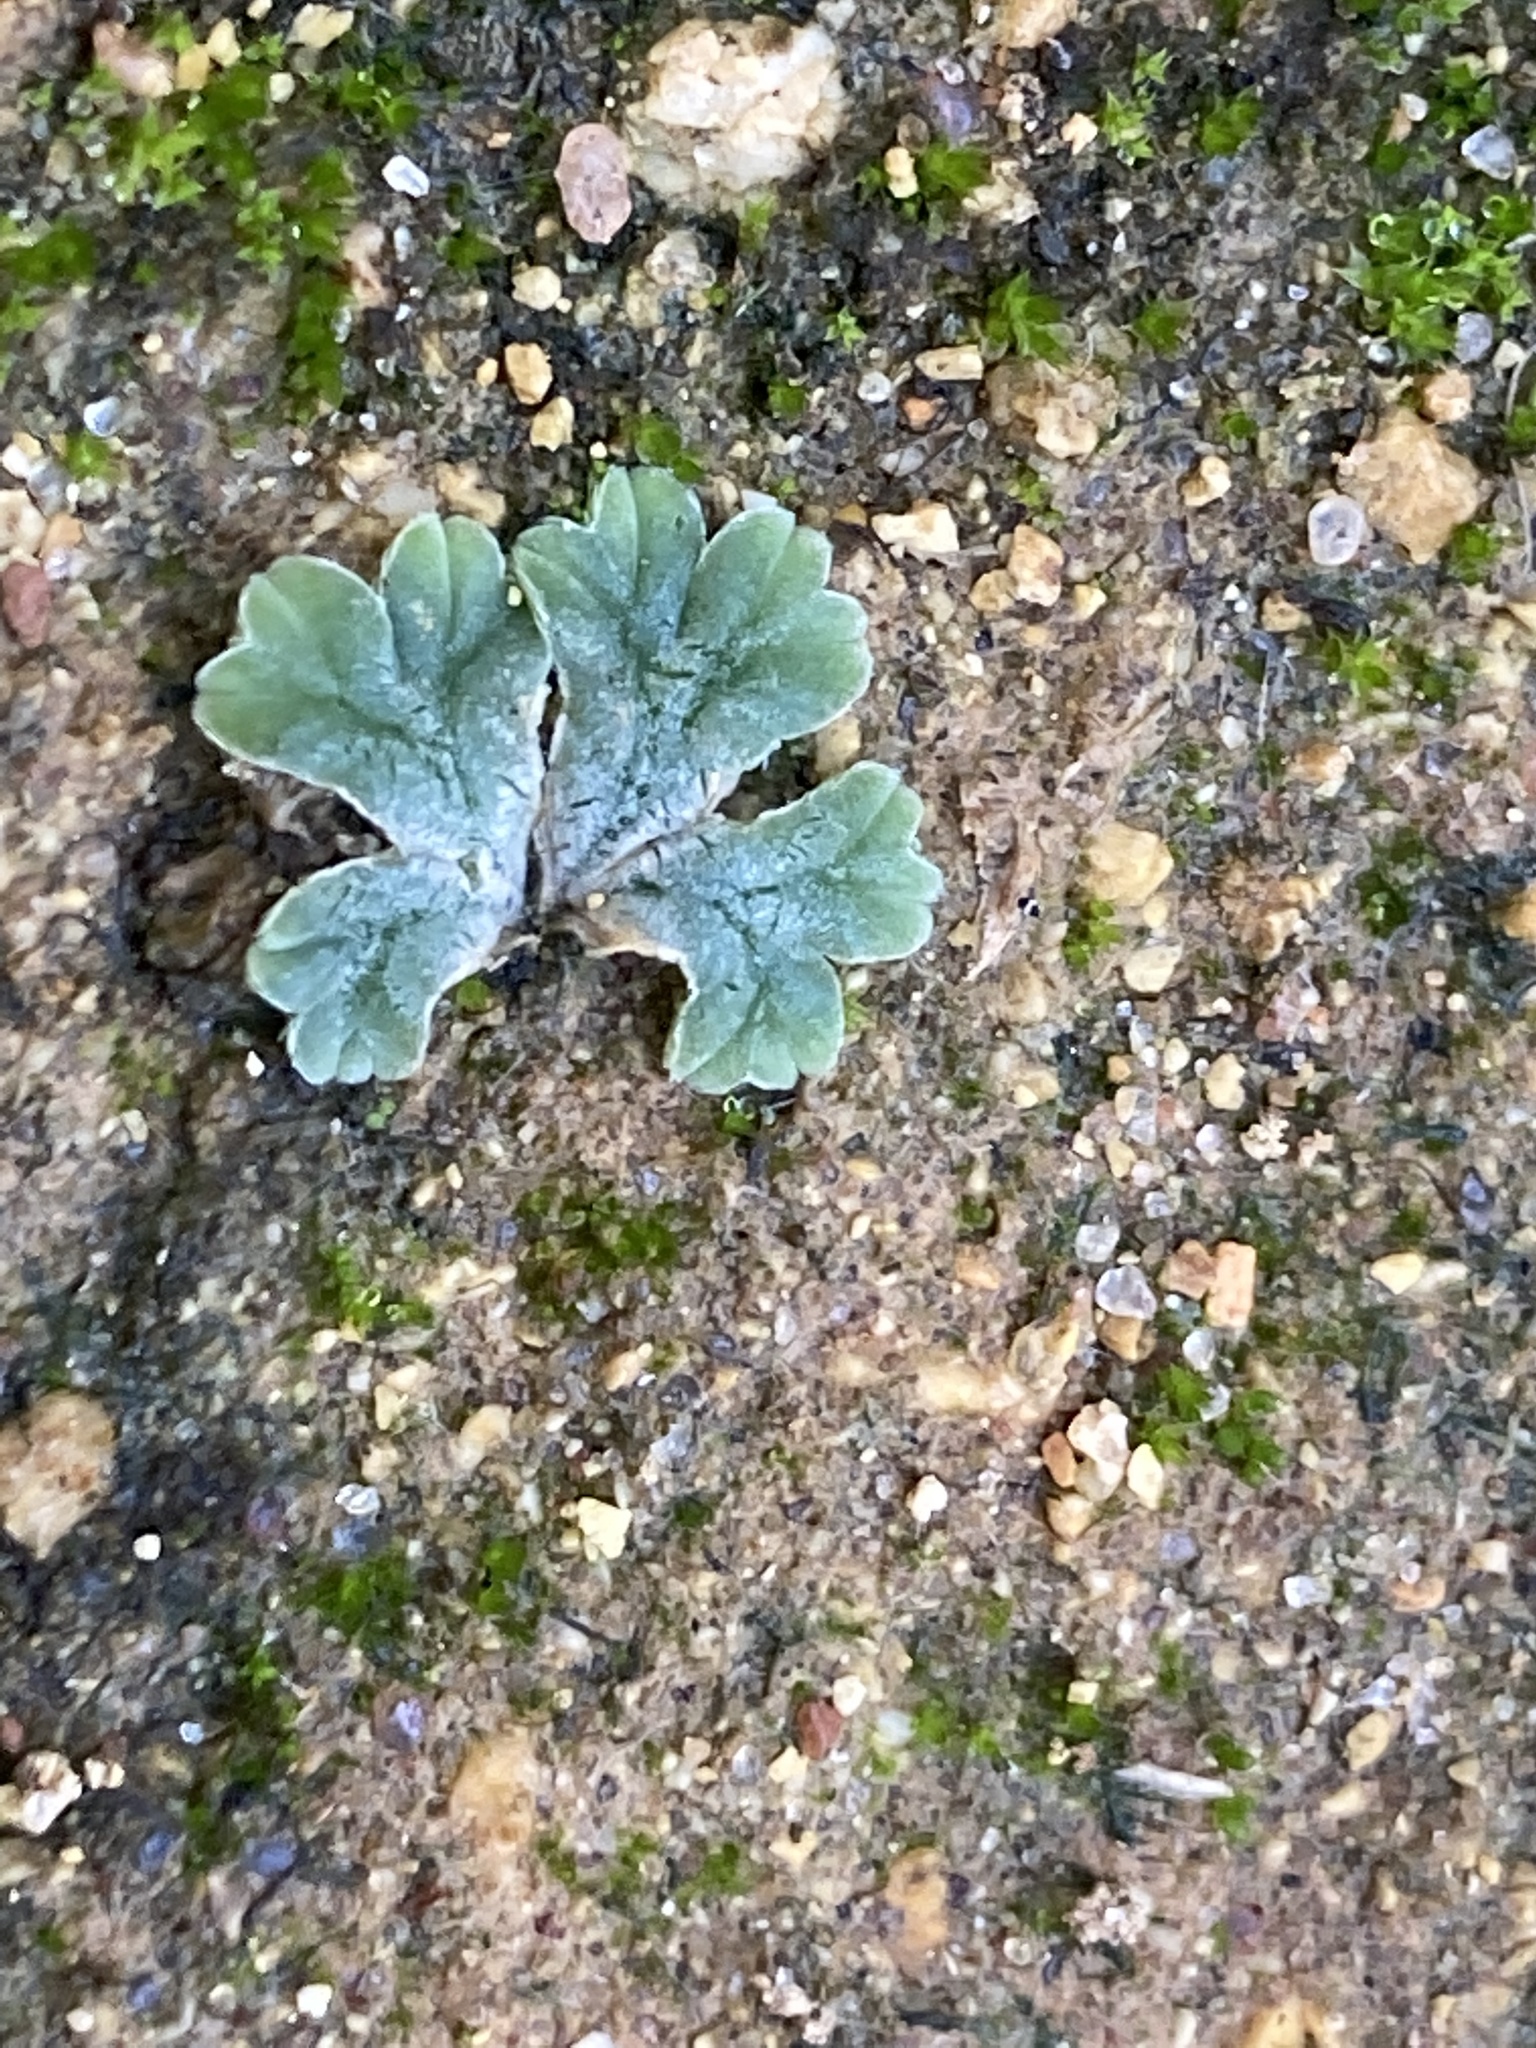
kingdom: Plantae
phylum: Marchantiophyta
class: Marchantiopsida
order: Marchantiales
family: Ricciaceae
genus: Riccia
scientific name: Riccia lamellosa
